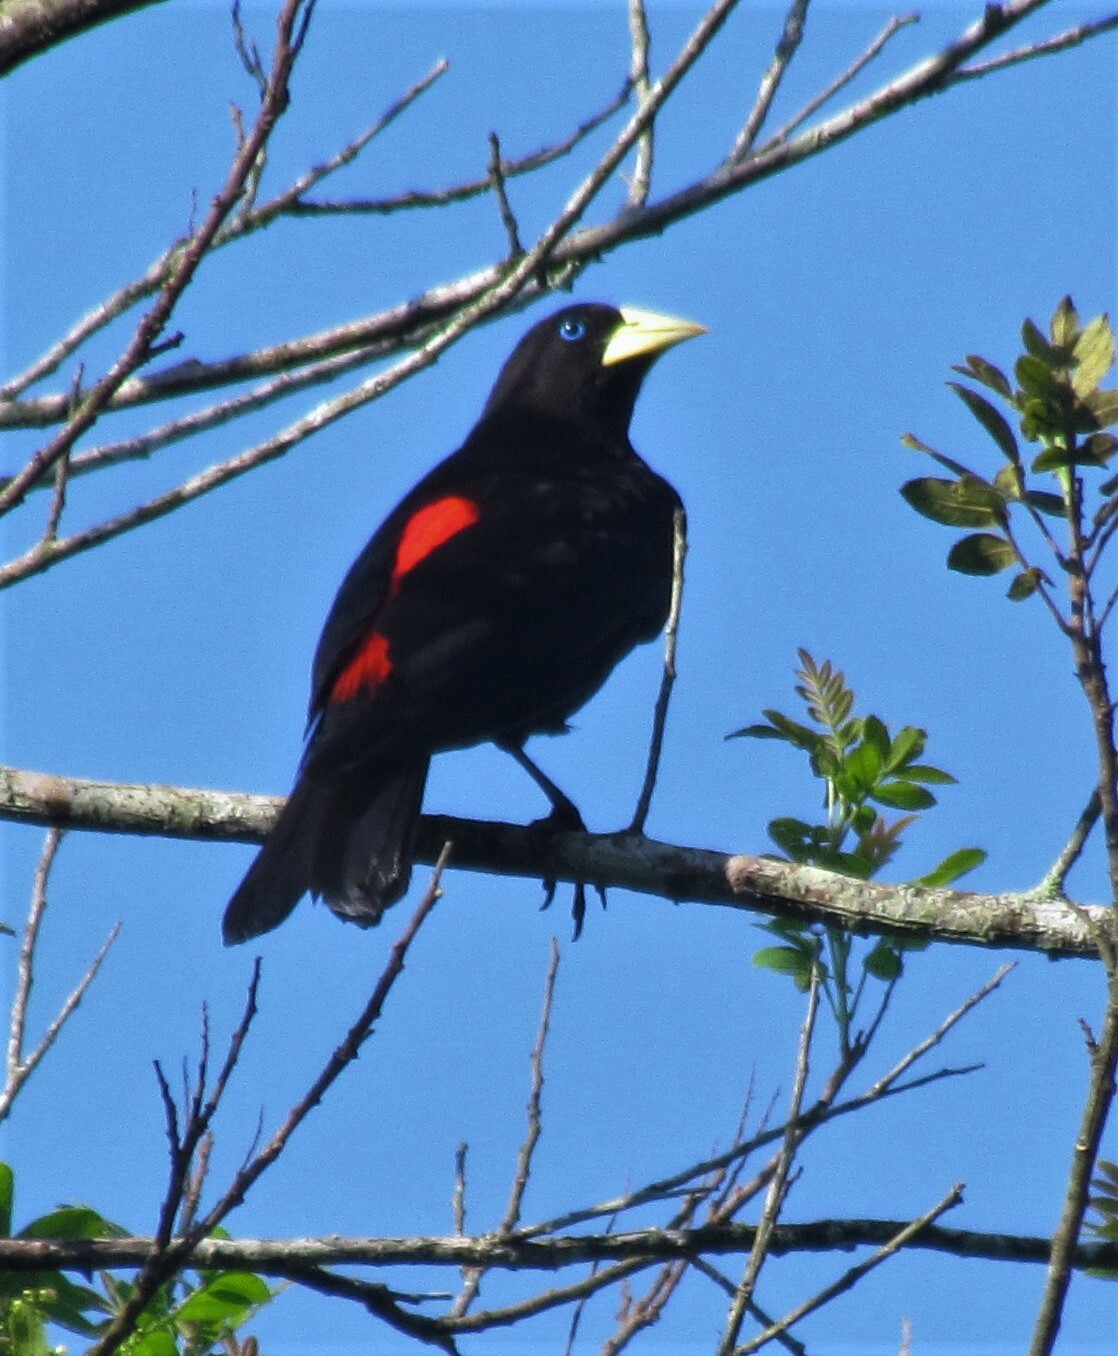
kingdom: Animalia
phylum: Chordata
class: Aves
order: Passeriformes
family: Icteridae
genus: Cacicus
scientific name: Cacicus haemorrhous
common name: Red-rumped cacique
